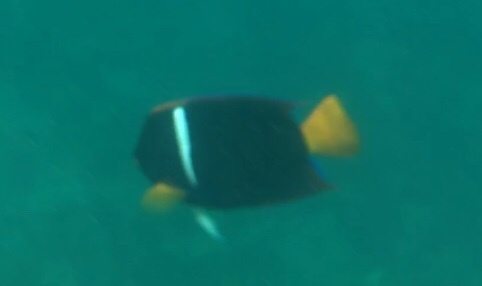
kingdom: Animalia
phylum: Chordata
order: Perciformes
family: Pomacanthidae
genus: Holacanthus
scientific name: Holacanthus passer
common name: King angelfish
